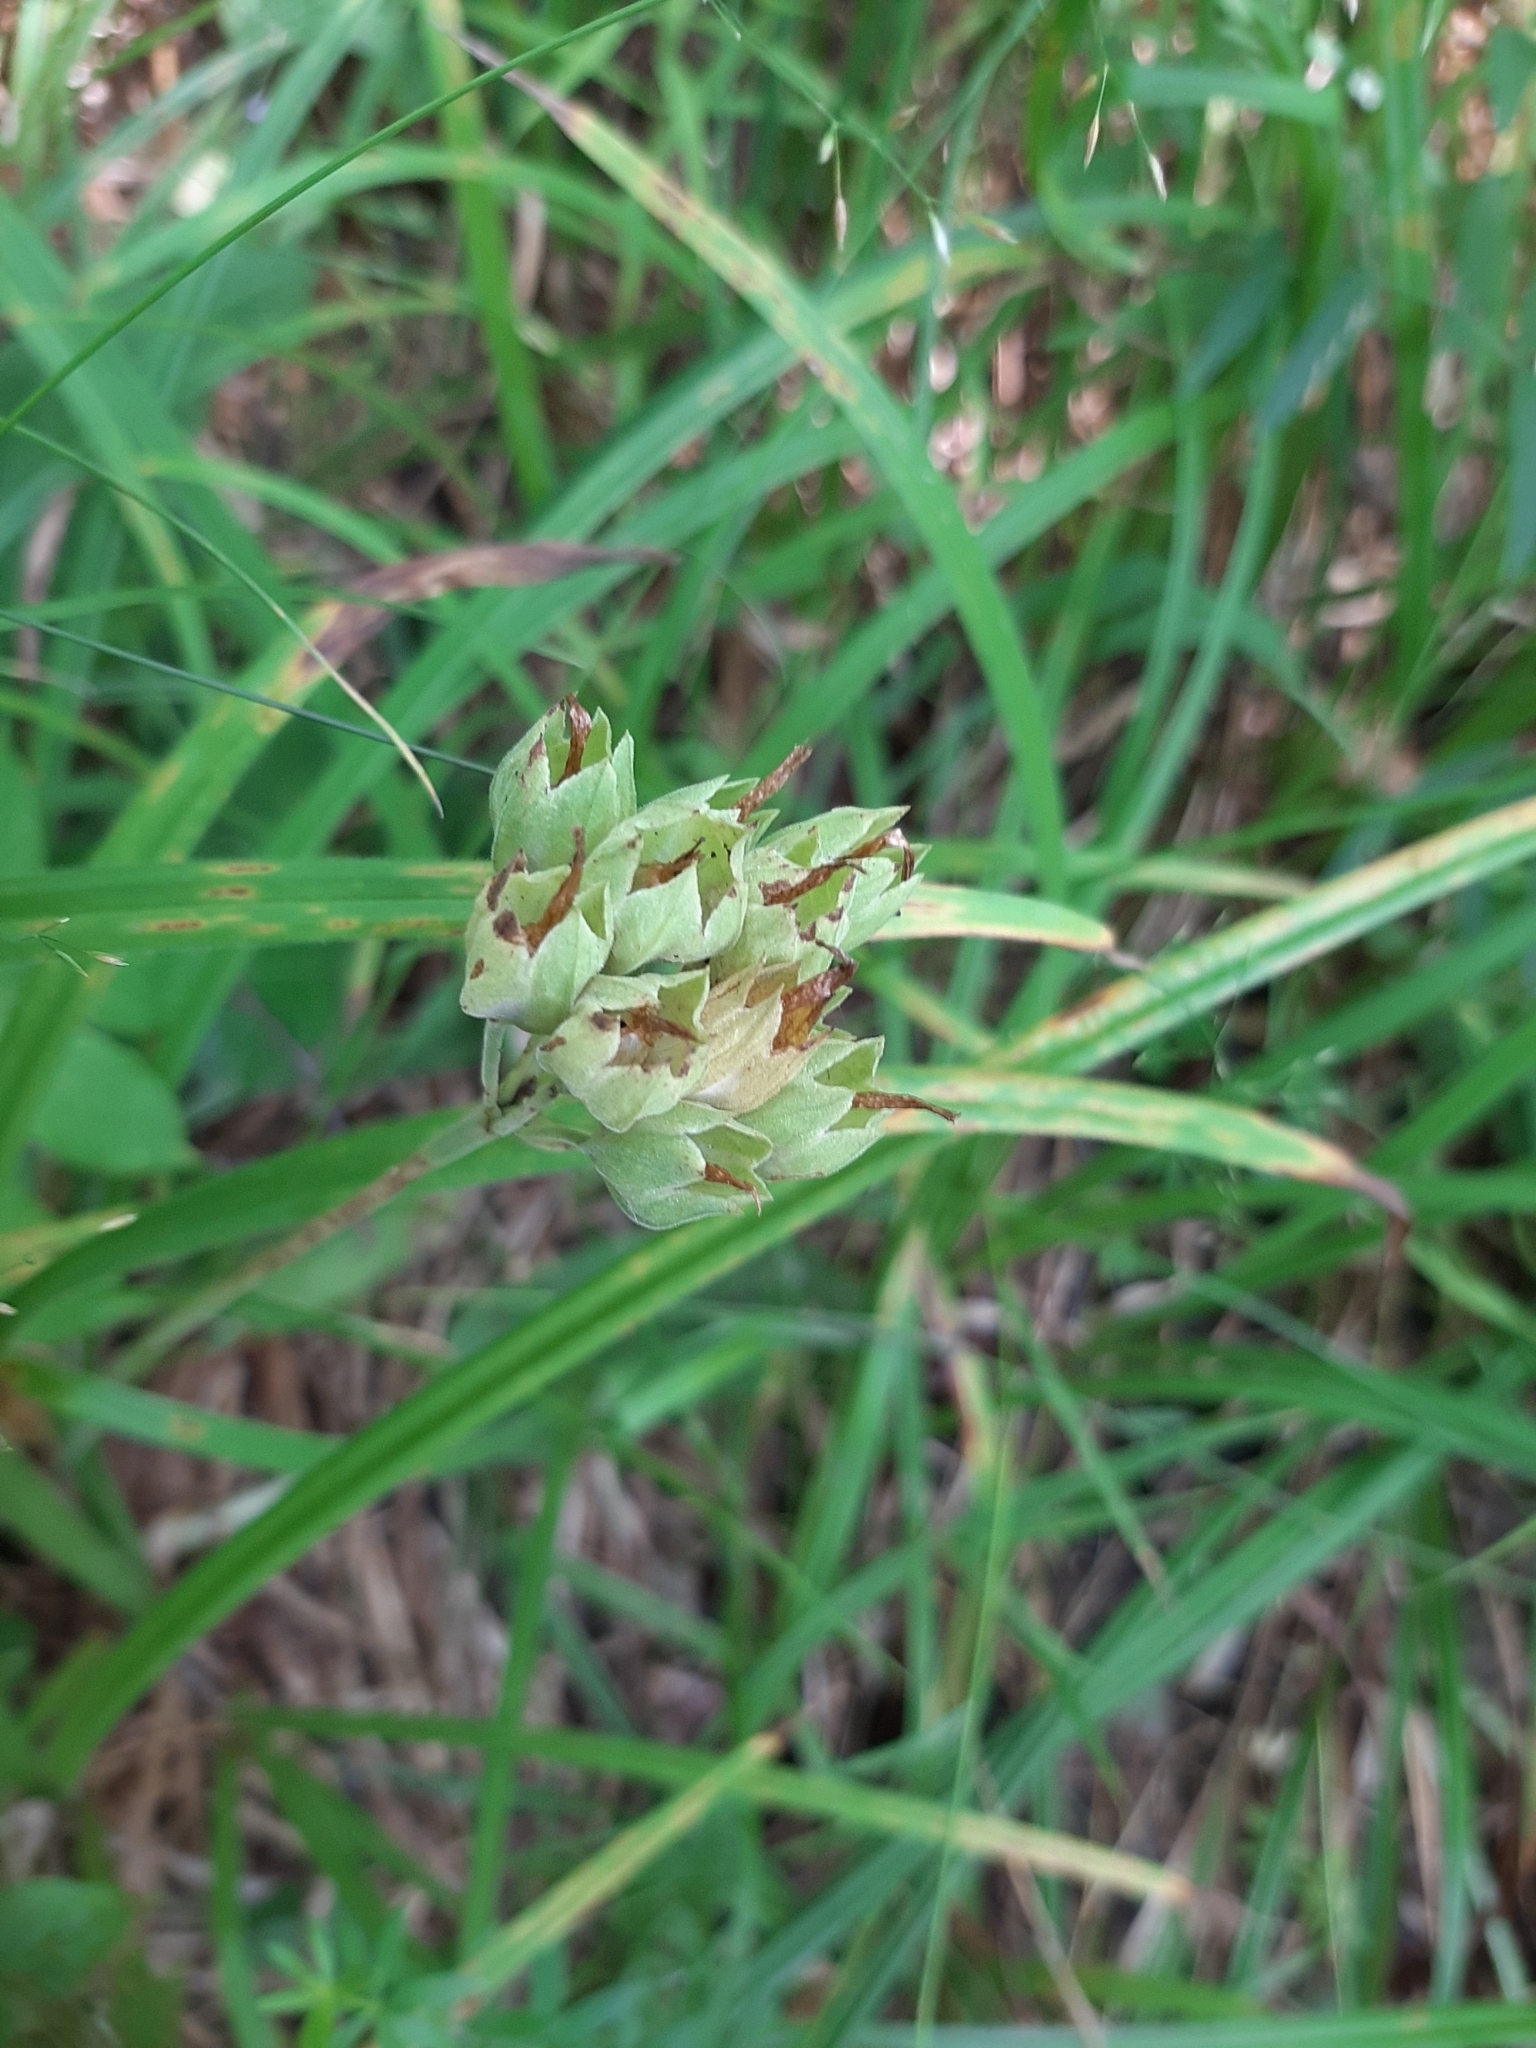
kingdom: Plantae
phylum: Tracheophyta
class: Magnoliopsida
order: Ericales
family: Primulaceae
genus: Primula
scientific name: Primula veris
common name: Cowslip
